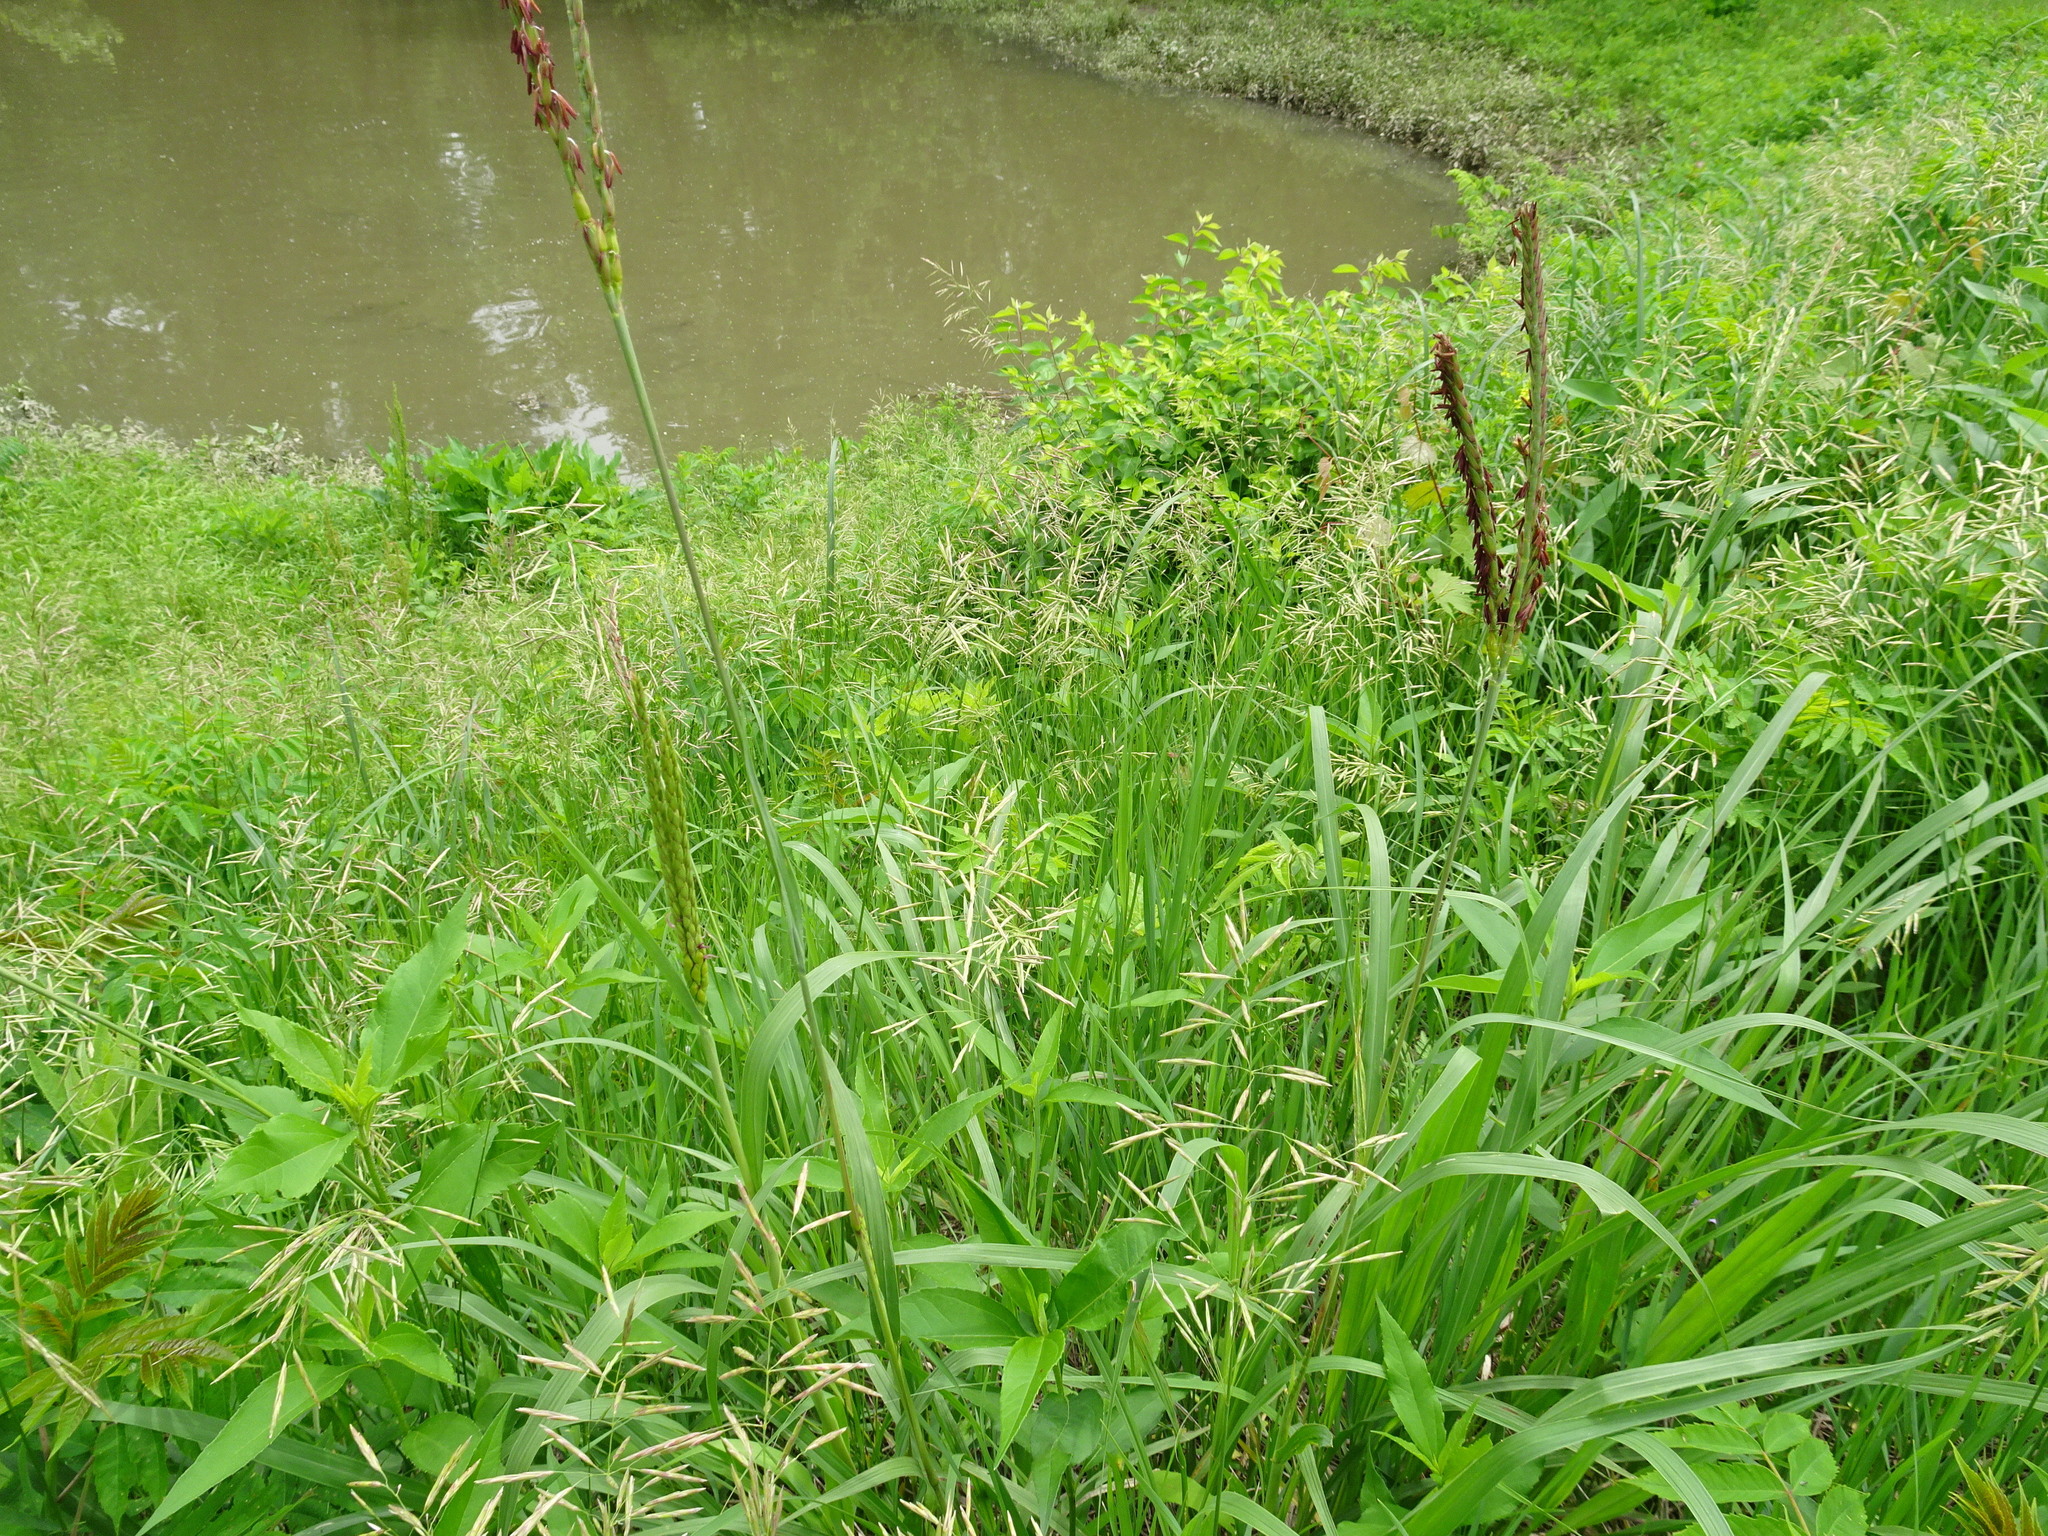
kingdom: Plantae
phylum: Tracheophyta
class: Liliopsida
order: Poales
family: Poaceae
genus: Tripsacum
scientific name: Tripsacum dactyloides
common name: Buffalo-grass
